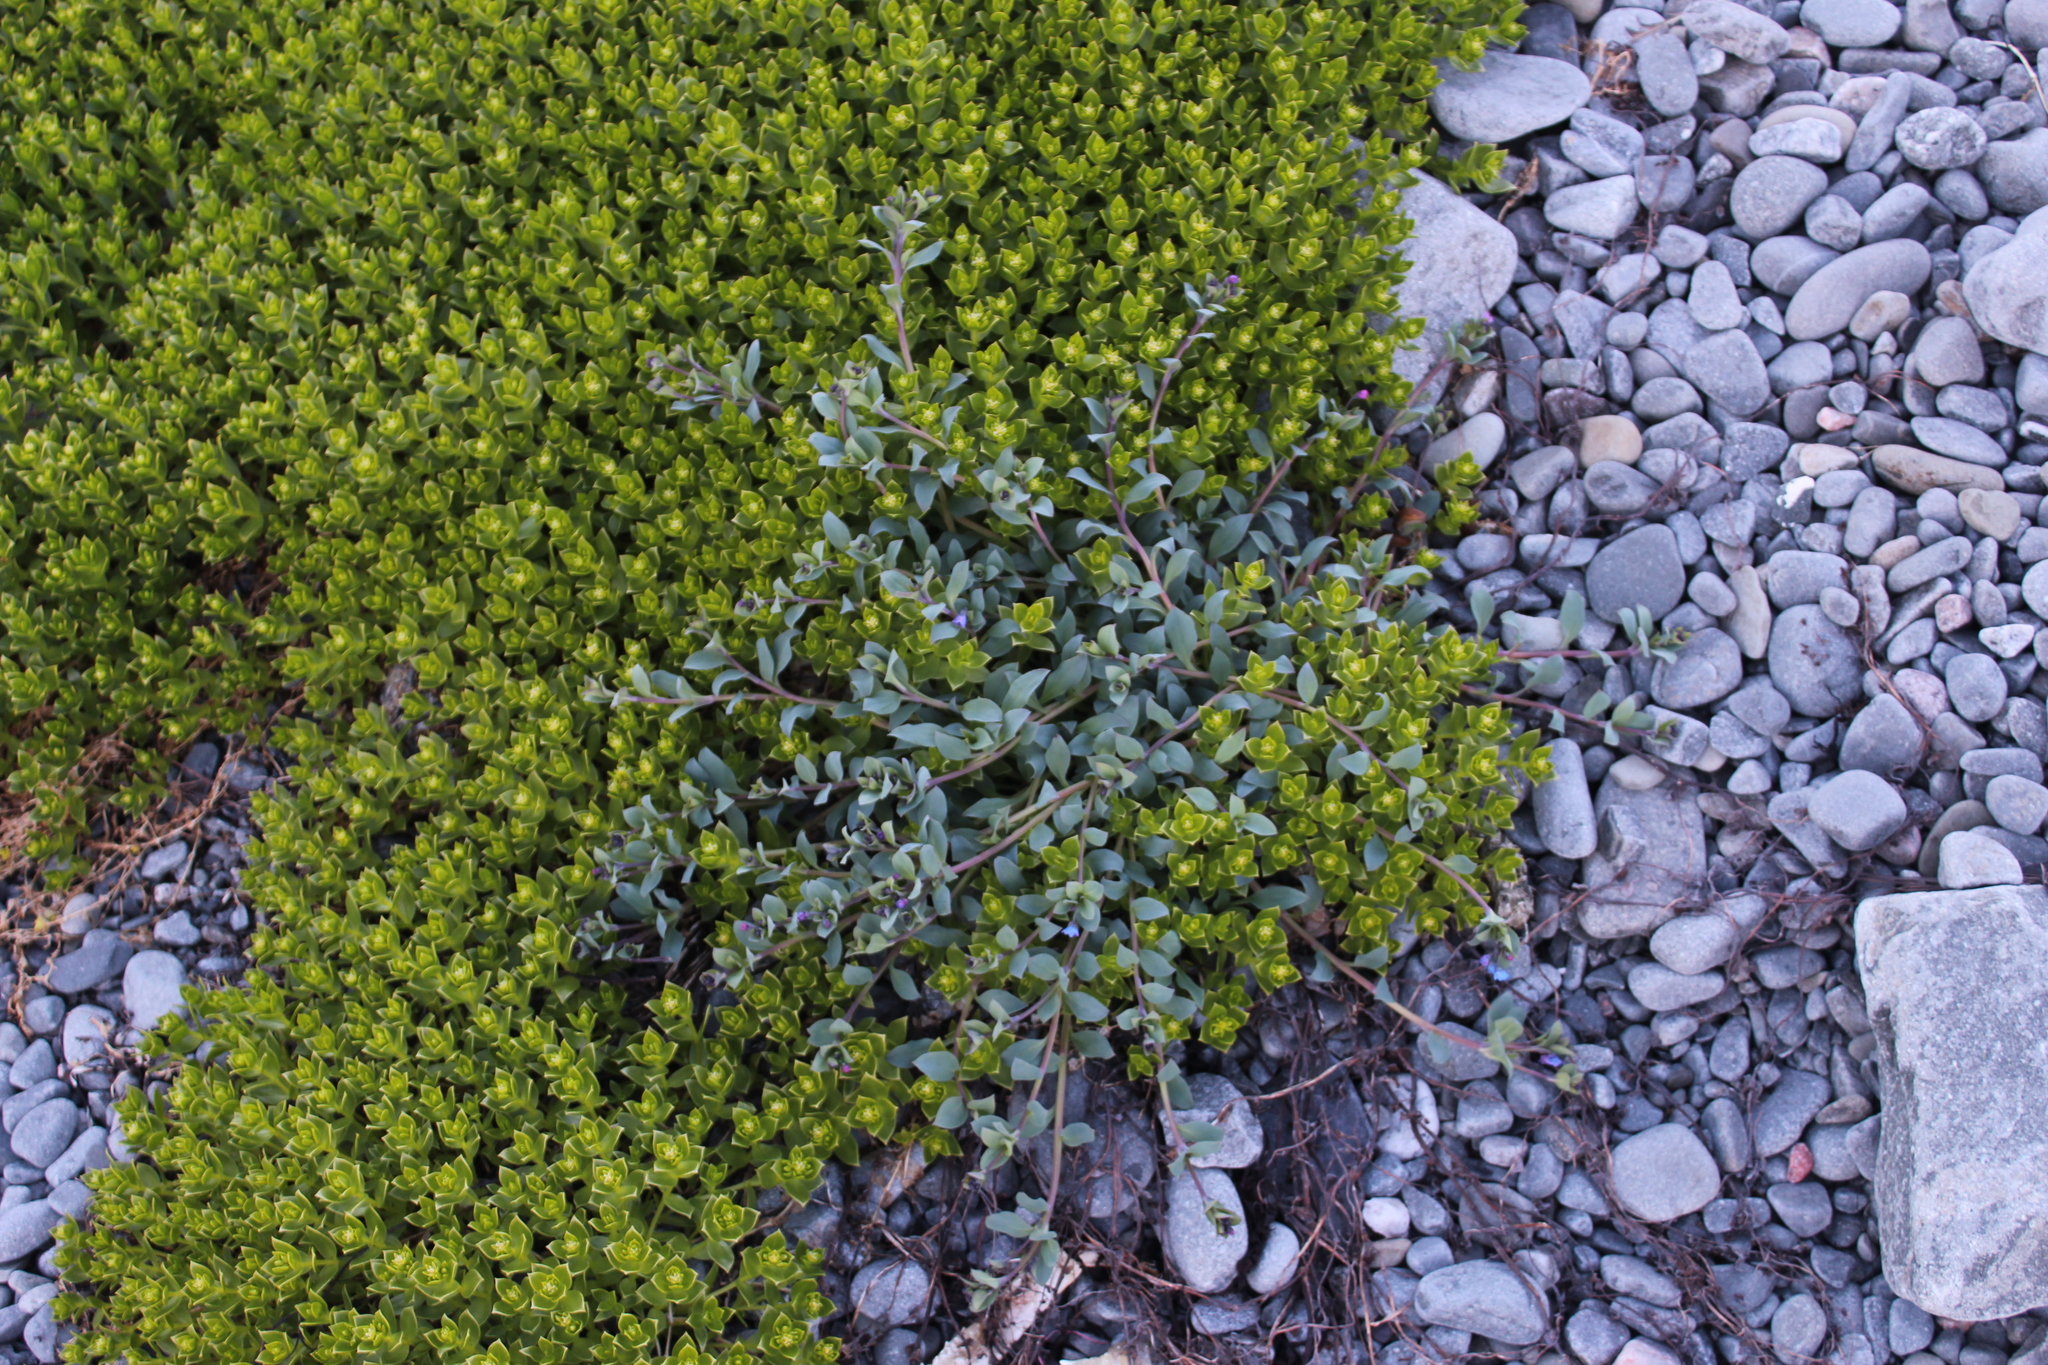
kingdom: Plantae
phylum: Tracheophyta
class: Magnoliopsida
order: Boraginales
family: Boraginaceae
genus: Mertensia
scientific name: Mertensia maritima
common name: Oysterplant
